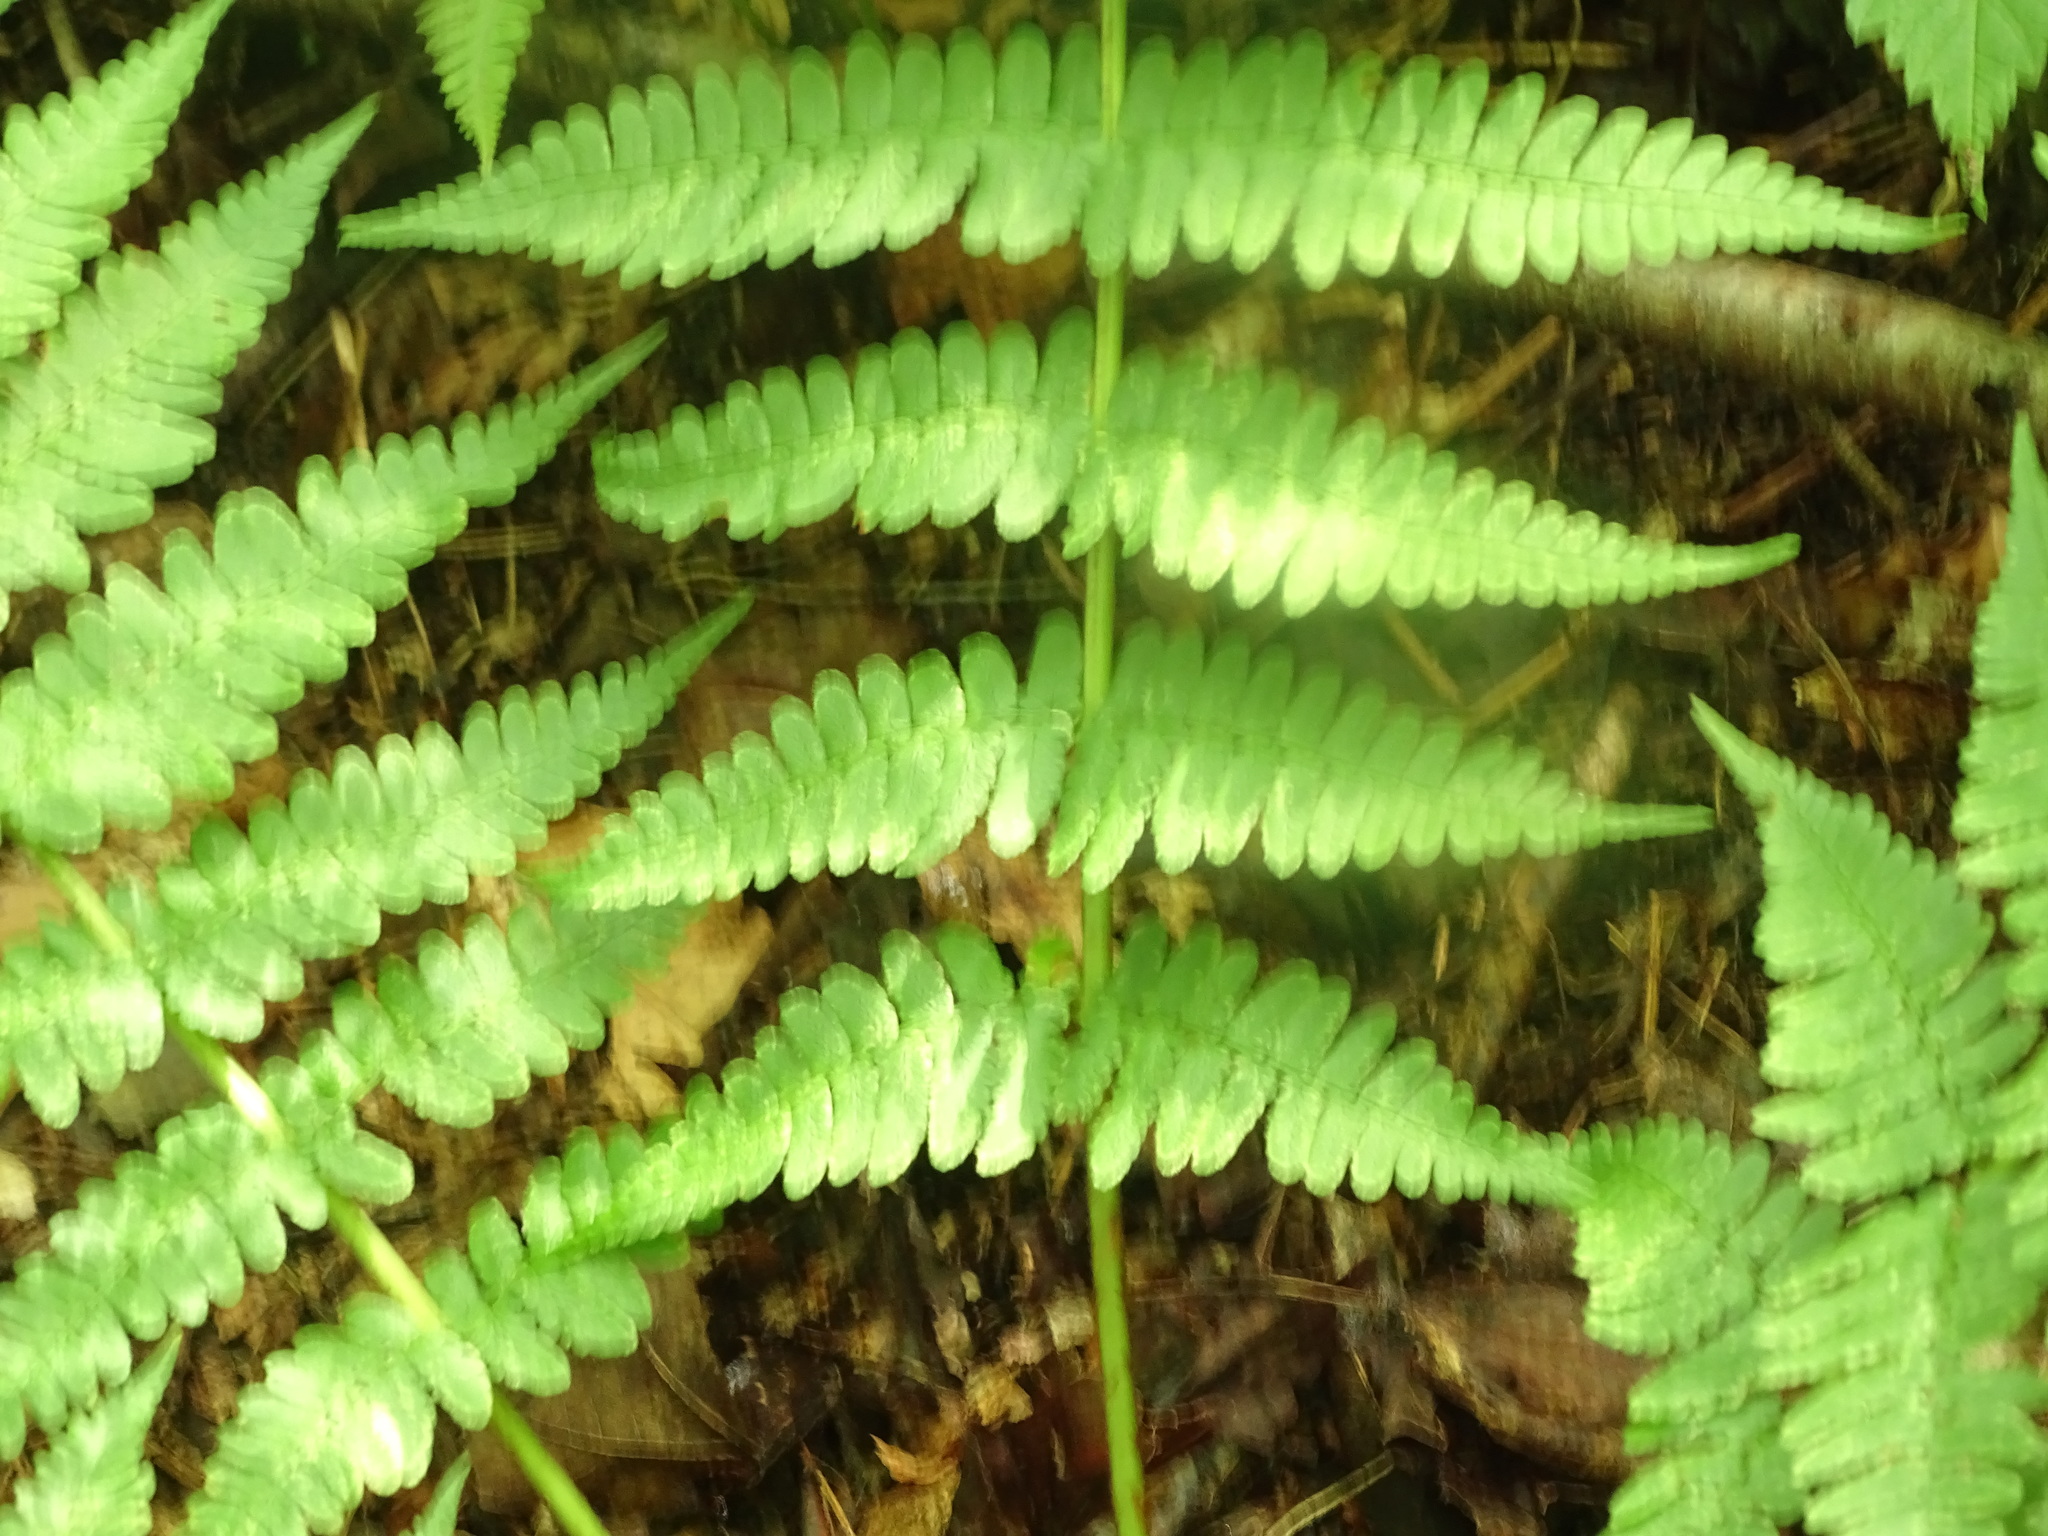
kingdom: Plantae
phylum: Tracheophyta
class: Polypodiopsida
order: Polypodiales
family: Dryopteridaceae
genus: Dryopteris
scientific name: Dryopteris marginalis
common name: Marginal wood fern
